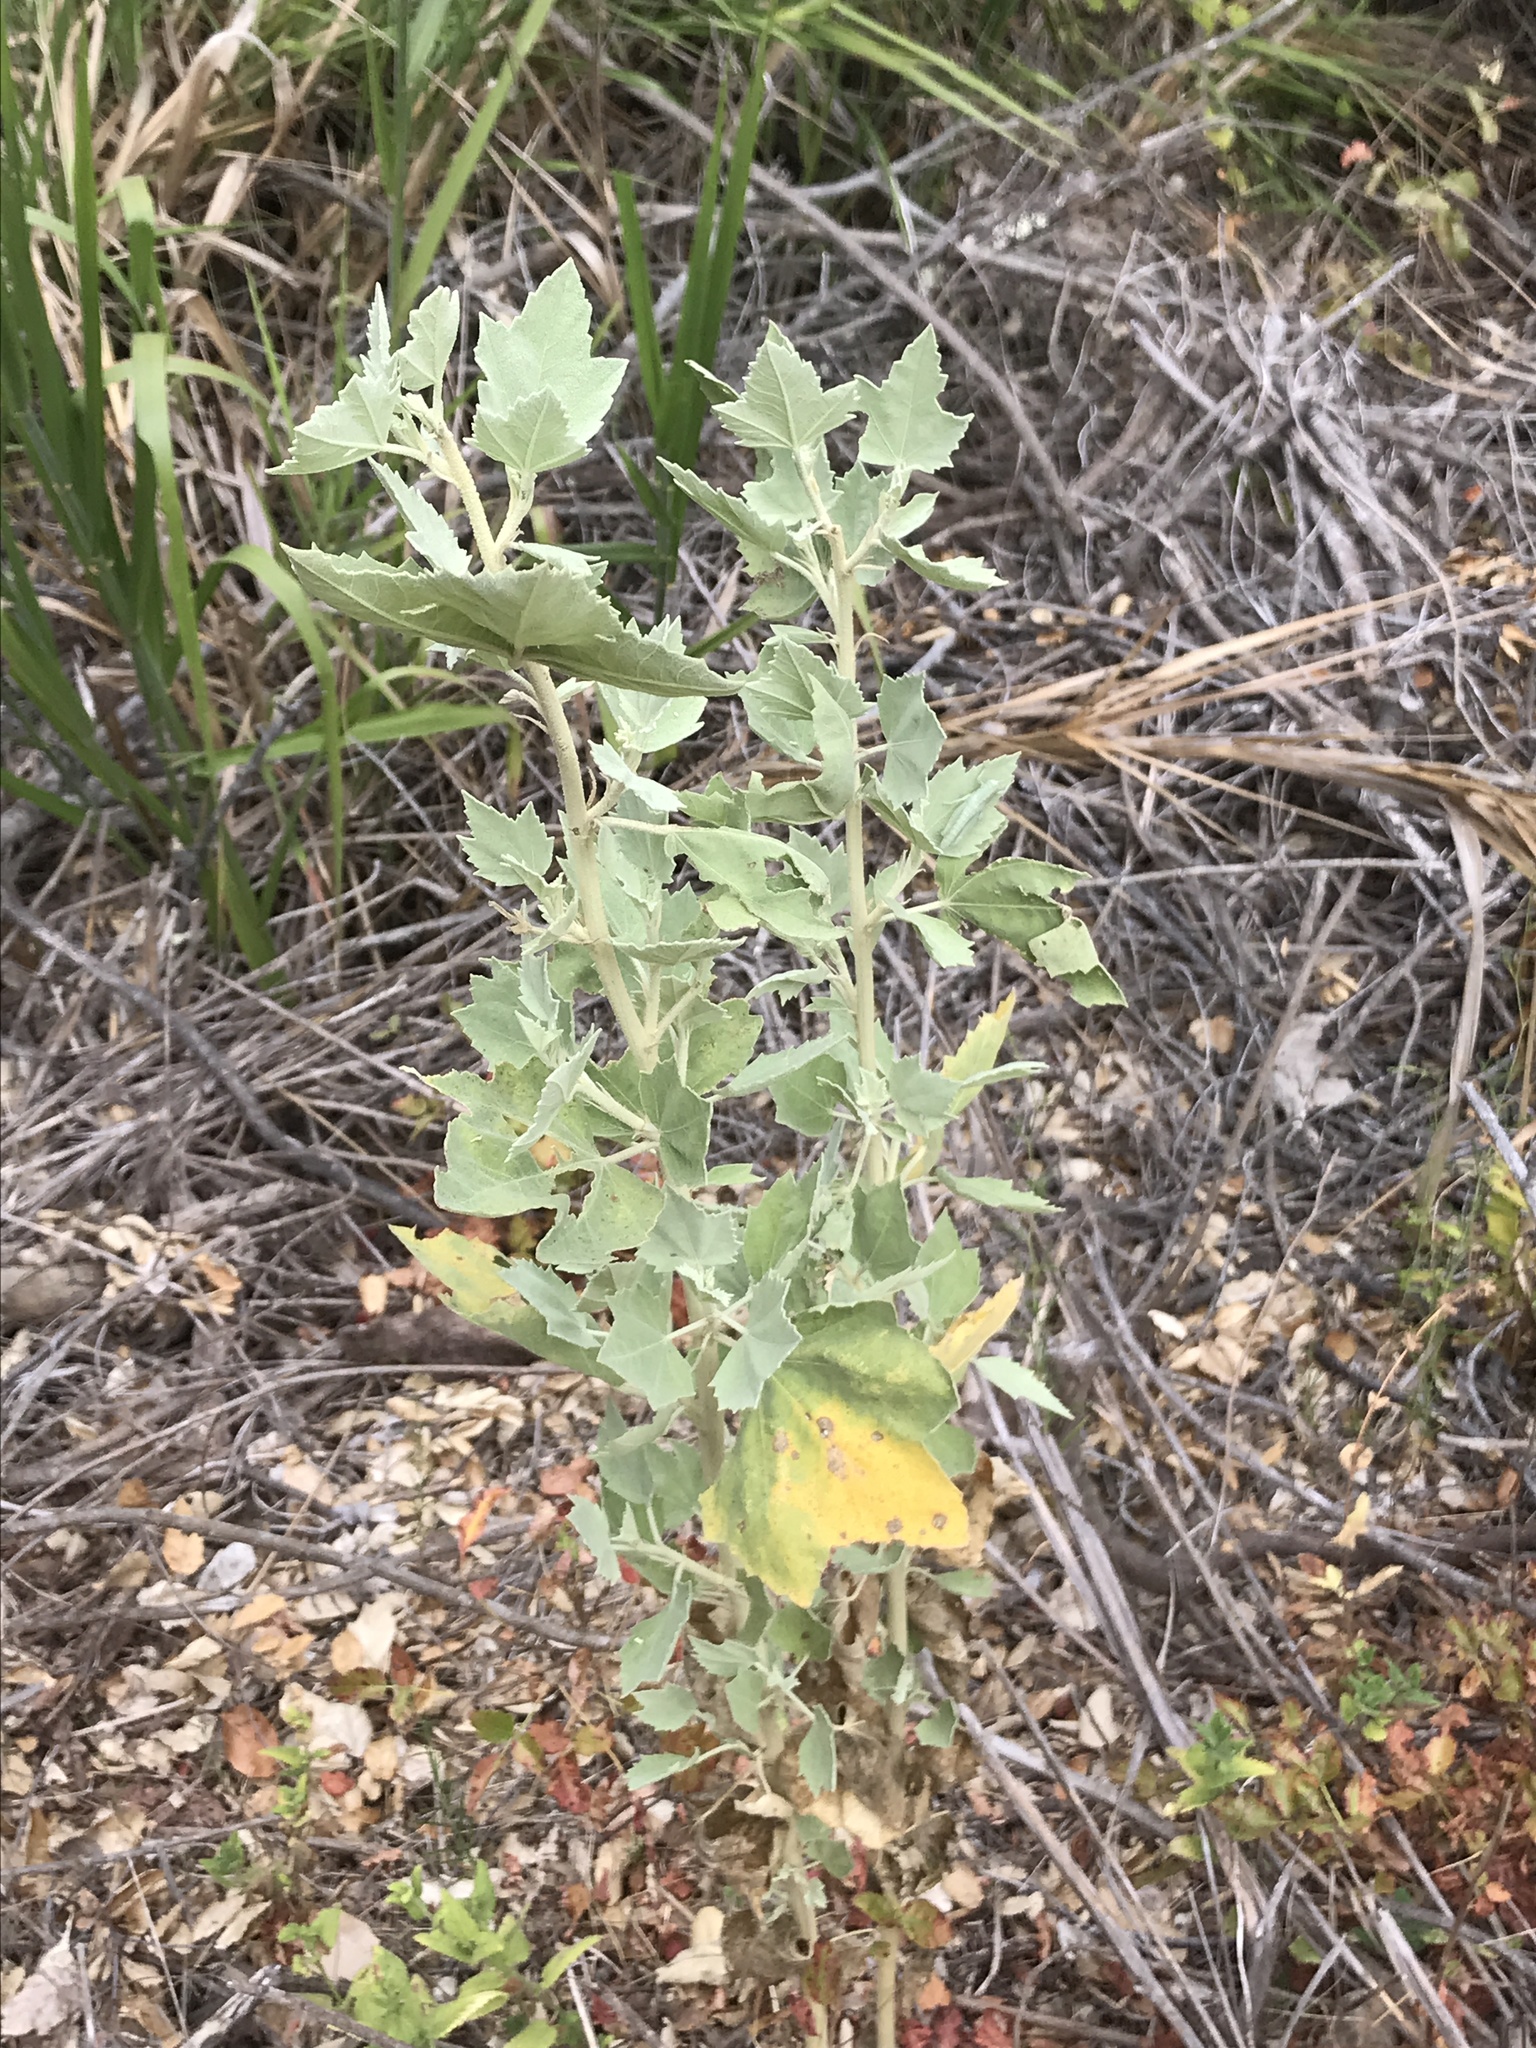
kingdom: Plantae
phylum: Tracheophyta
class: Magnoliopsida
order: Malvales
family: Malvaceae
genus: Malacothamnus
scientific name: Malacothamnus fasciculatus
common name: Sant cruz island bush-mallow
